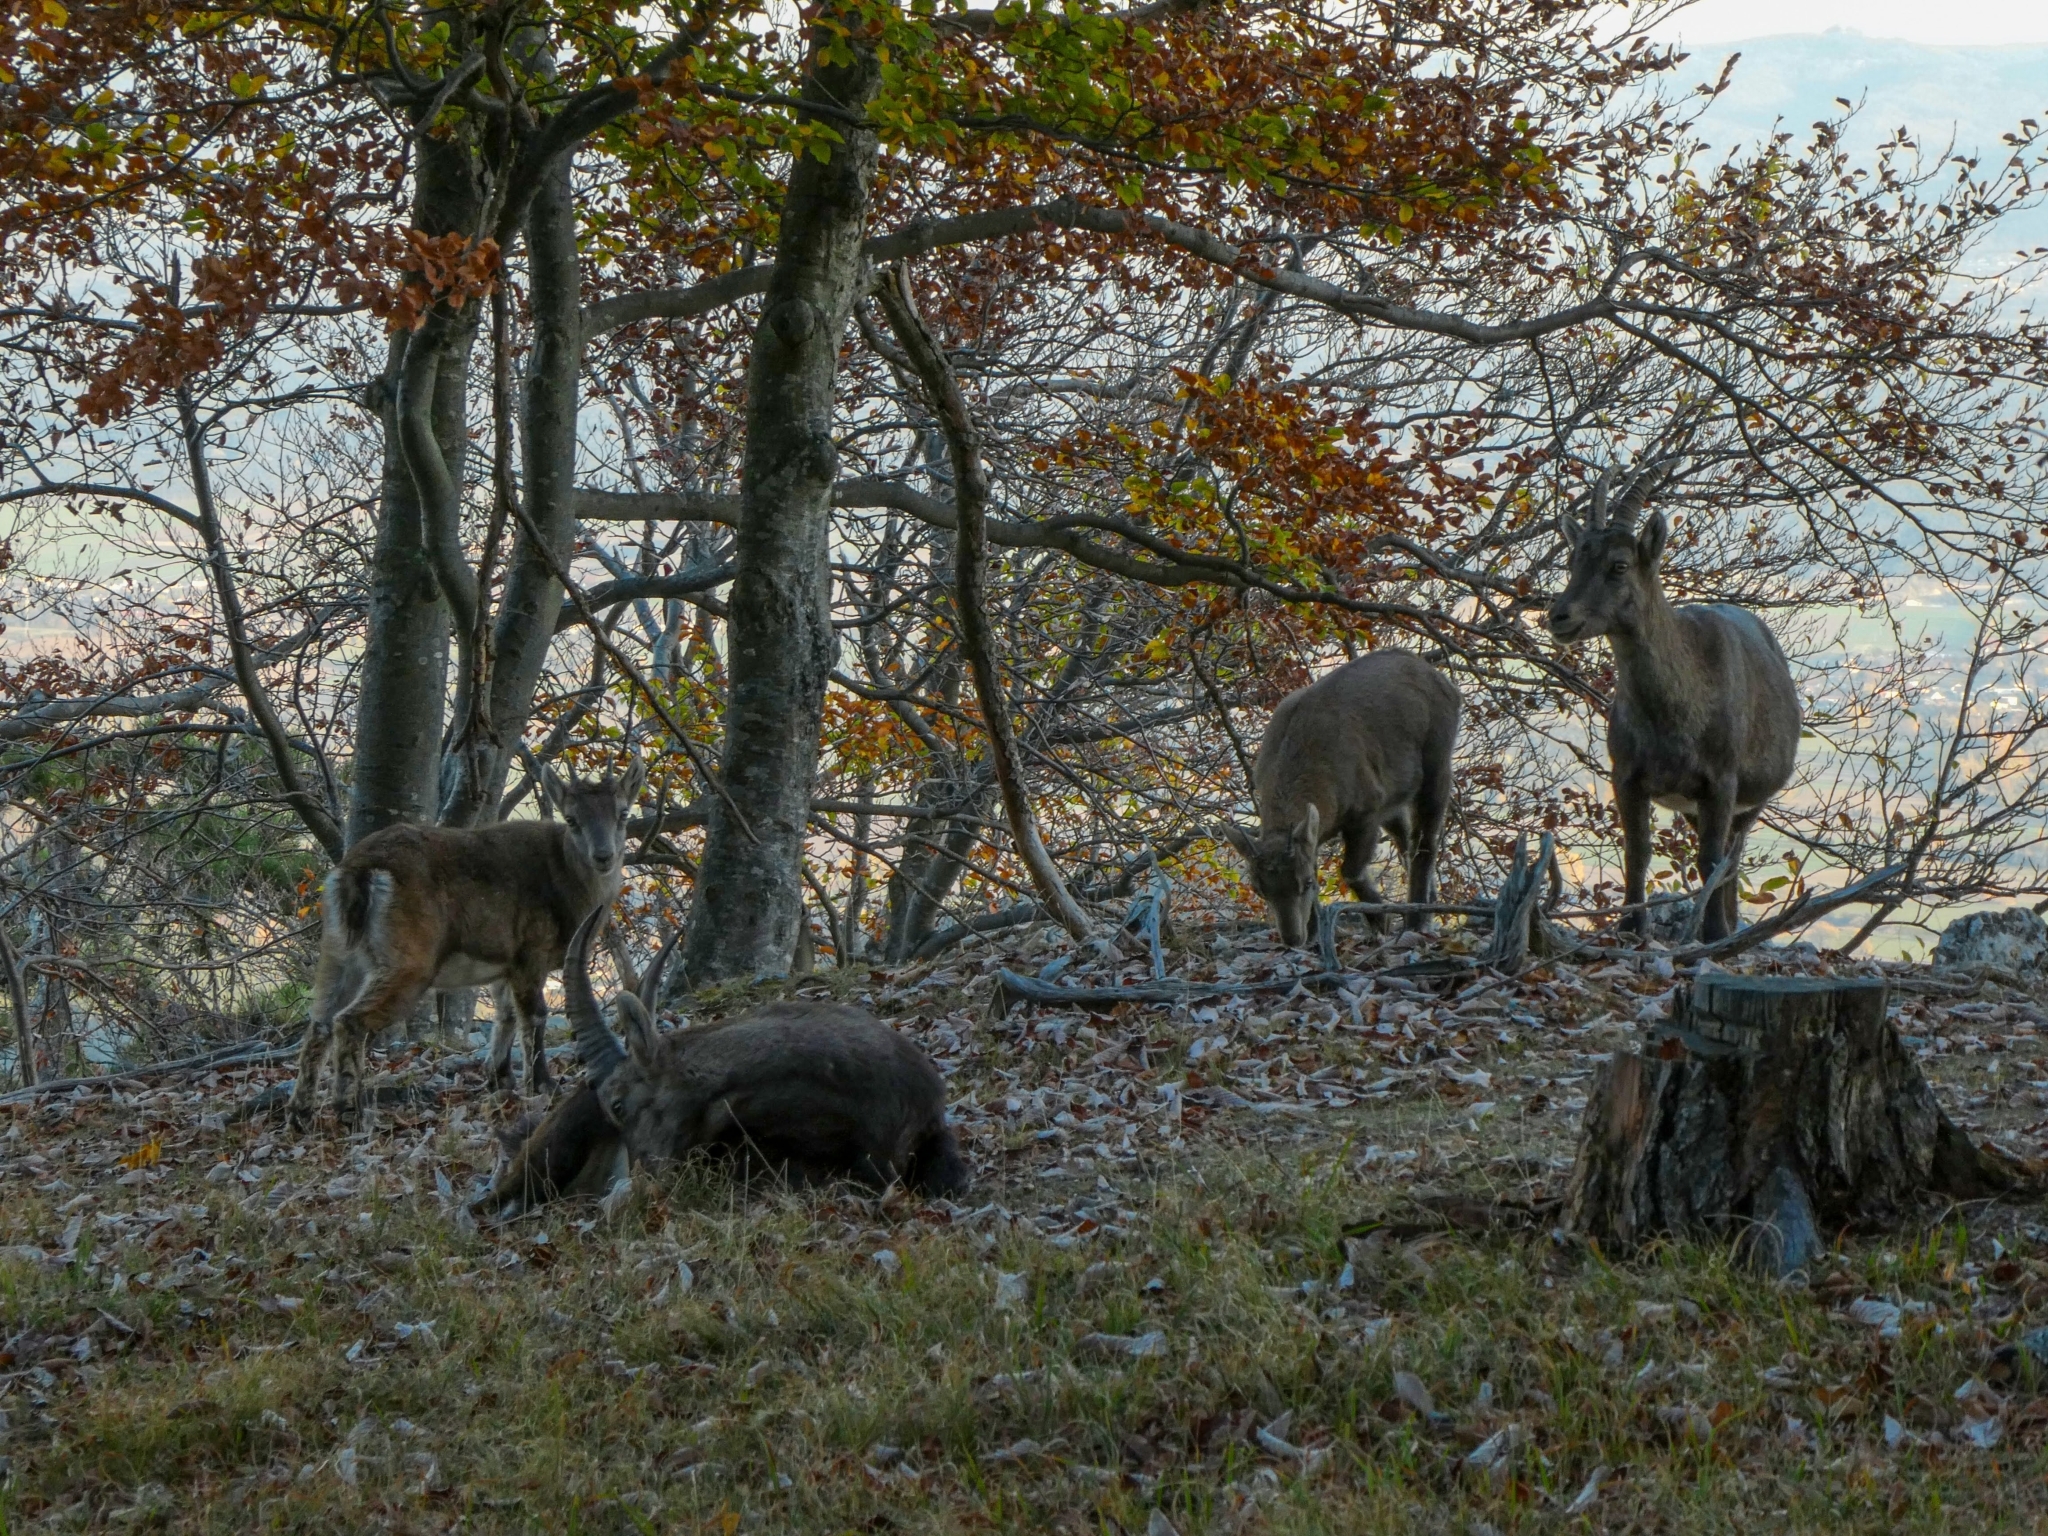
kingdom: Animalia
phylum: Chordata
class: Mammalia
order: Artiodactyla
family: Bovidae
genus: Capra
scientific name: Capra ibex
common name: Alpine ibex
